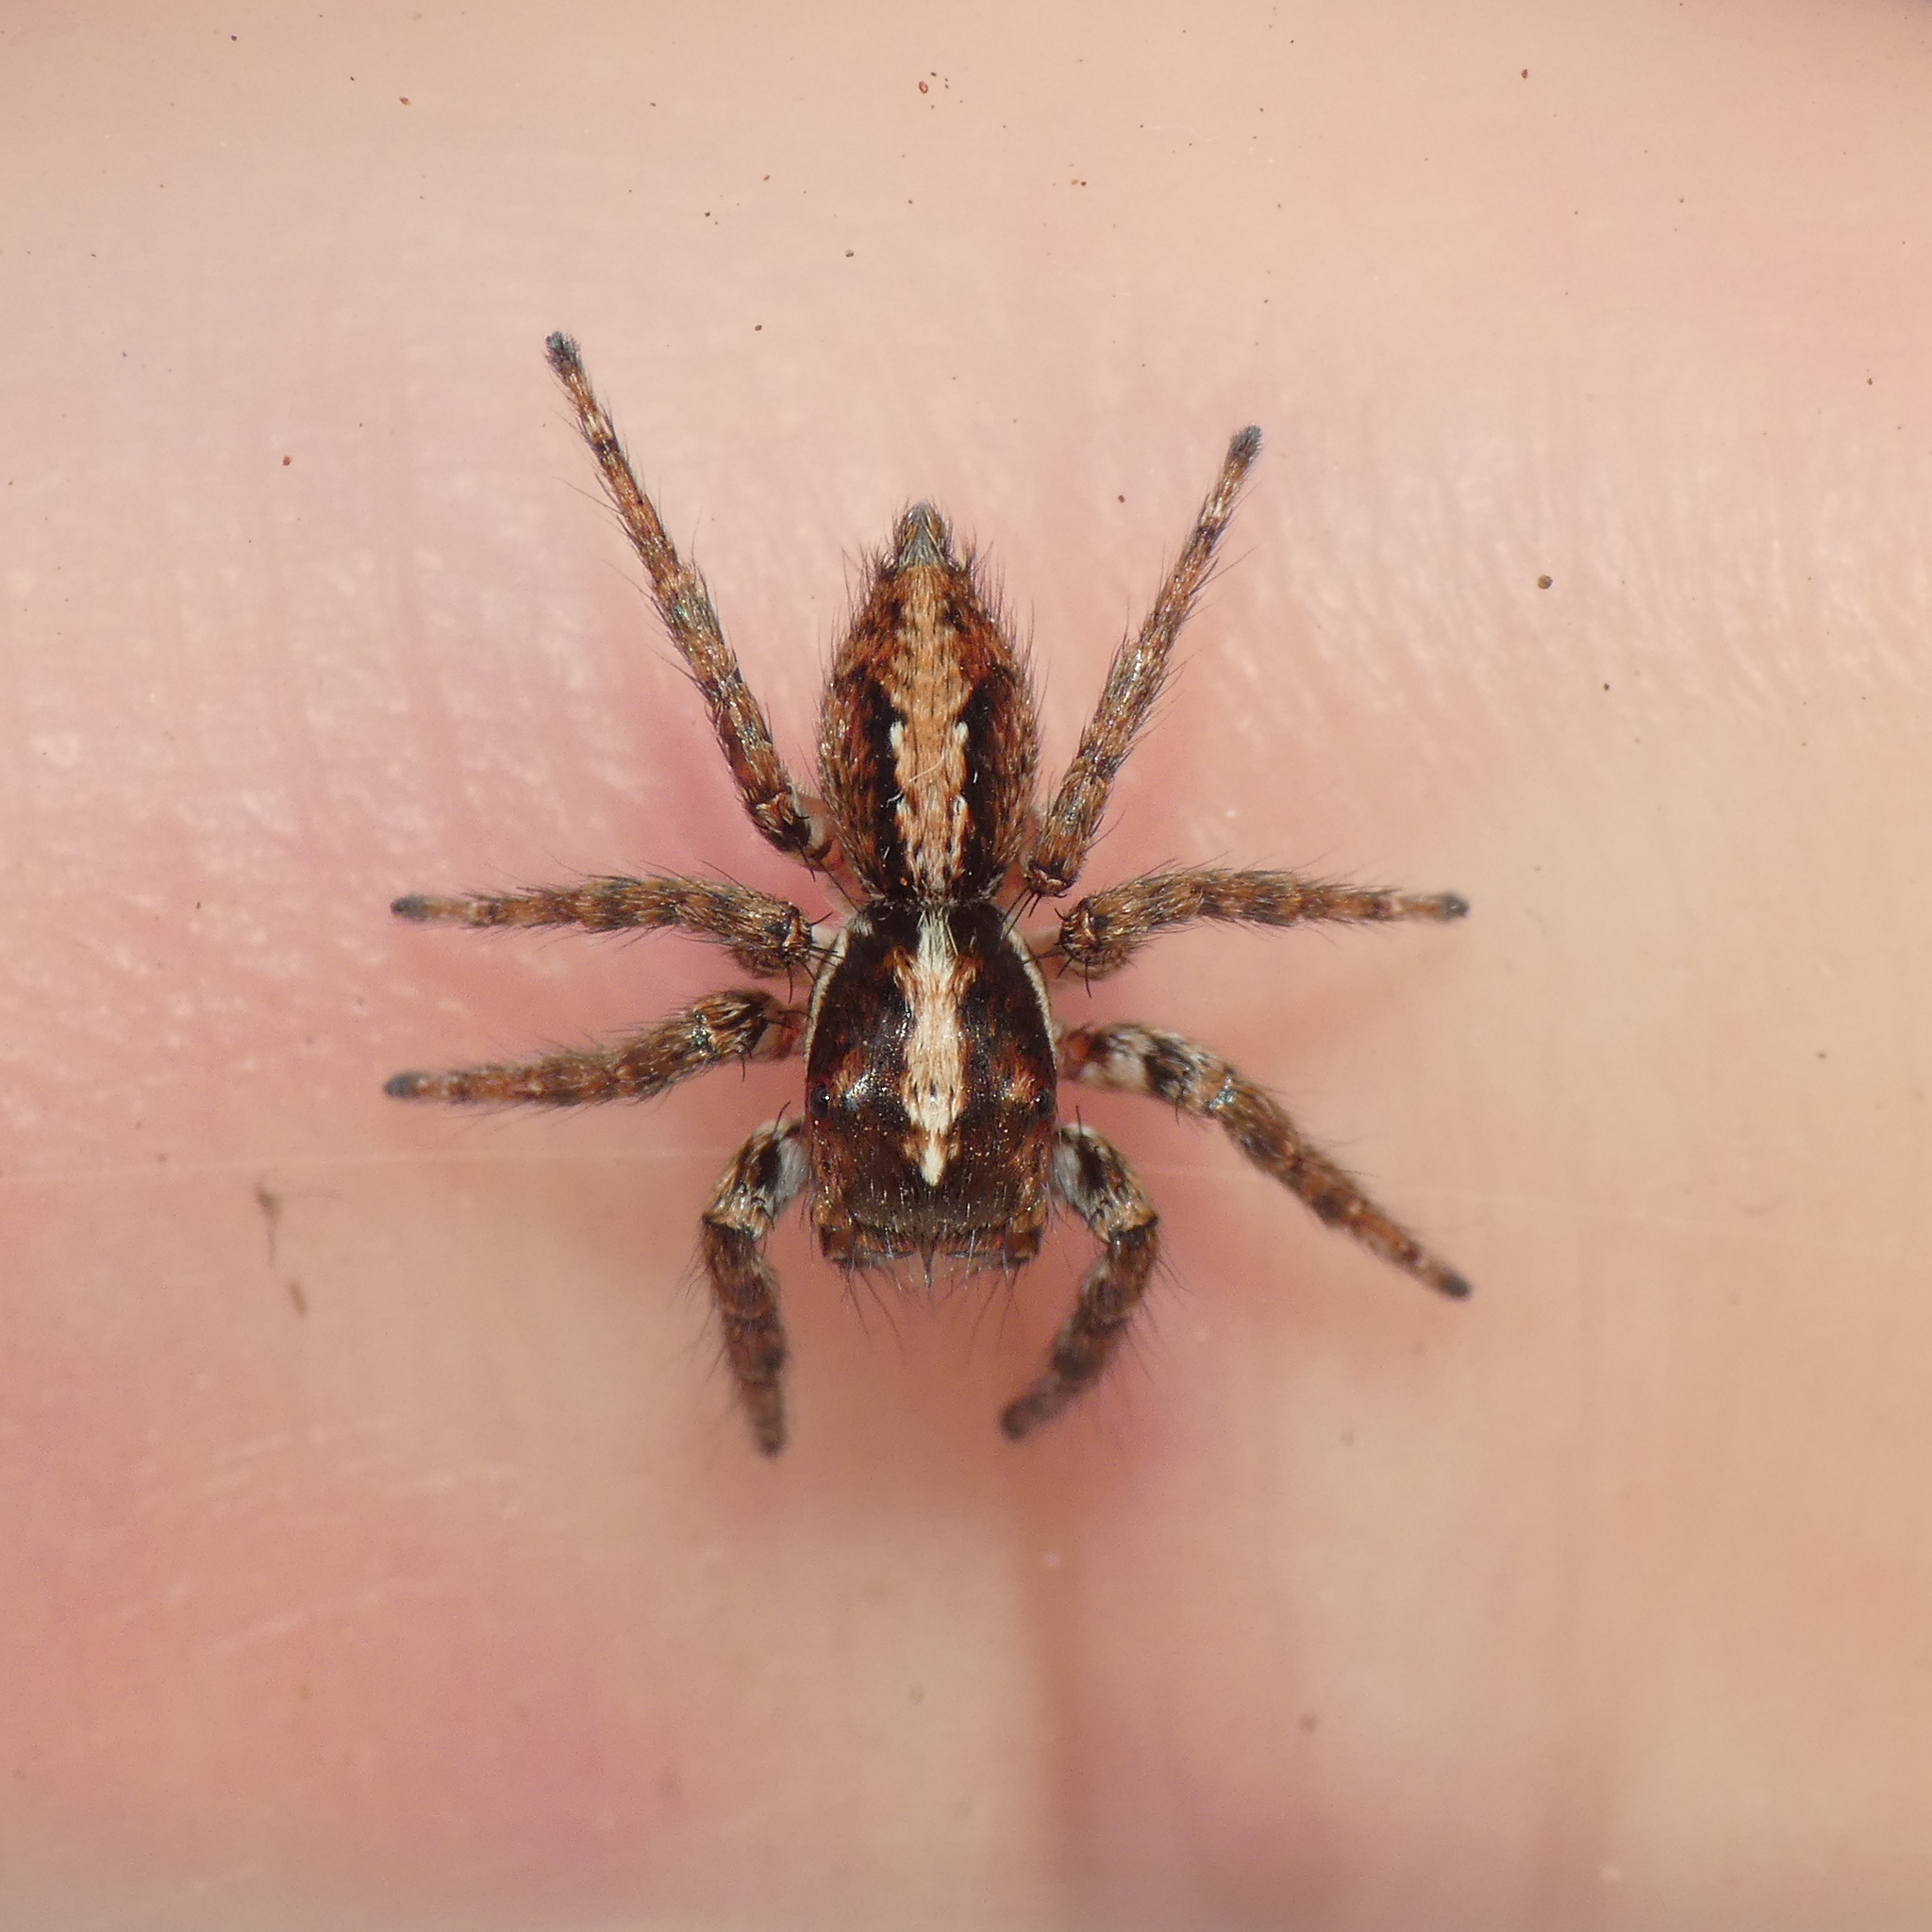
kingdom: Animalia
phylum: Arthropoda
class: Arachnida
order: Araneae
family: Salticidae
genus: Pignus
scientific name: Pignus simoni
